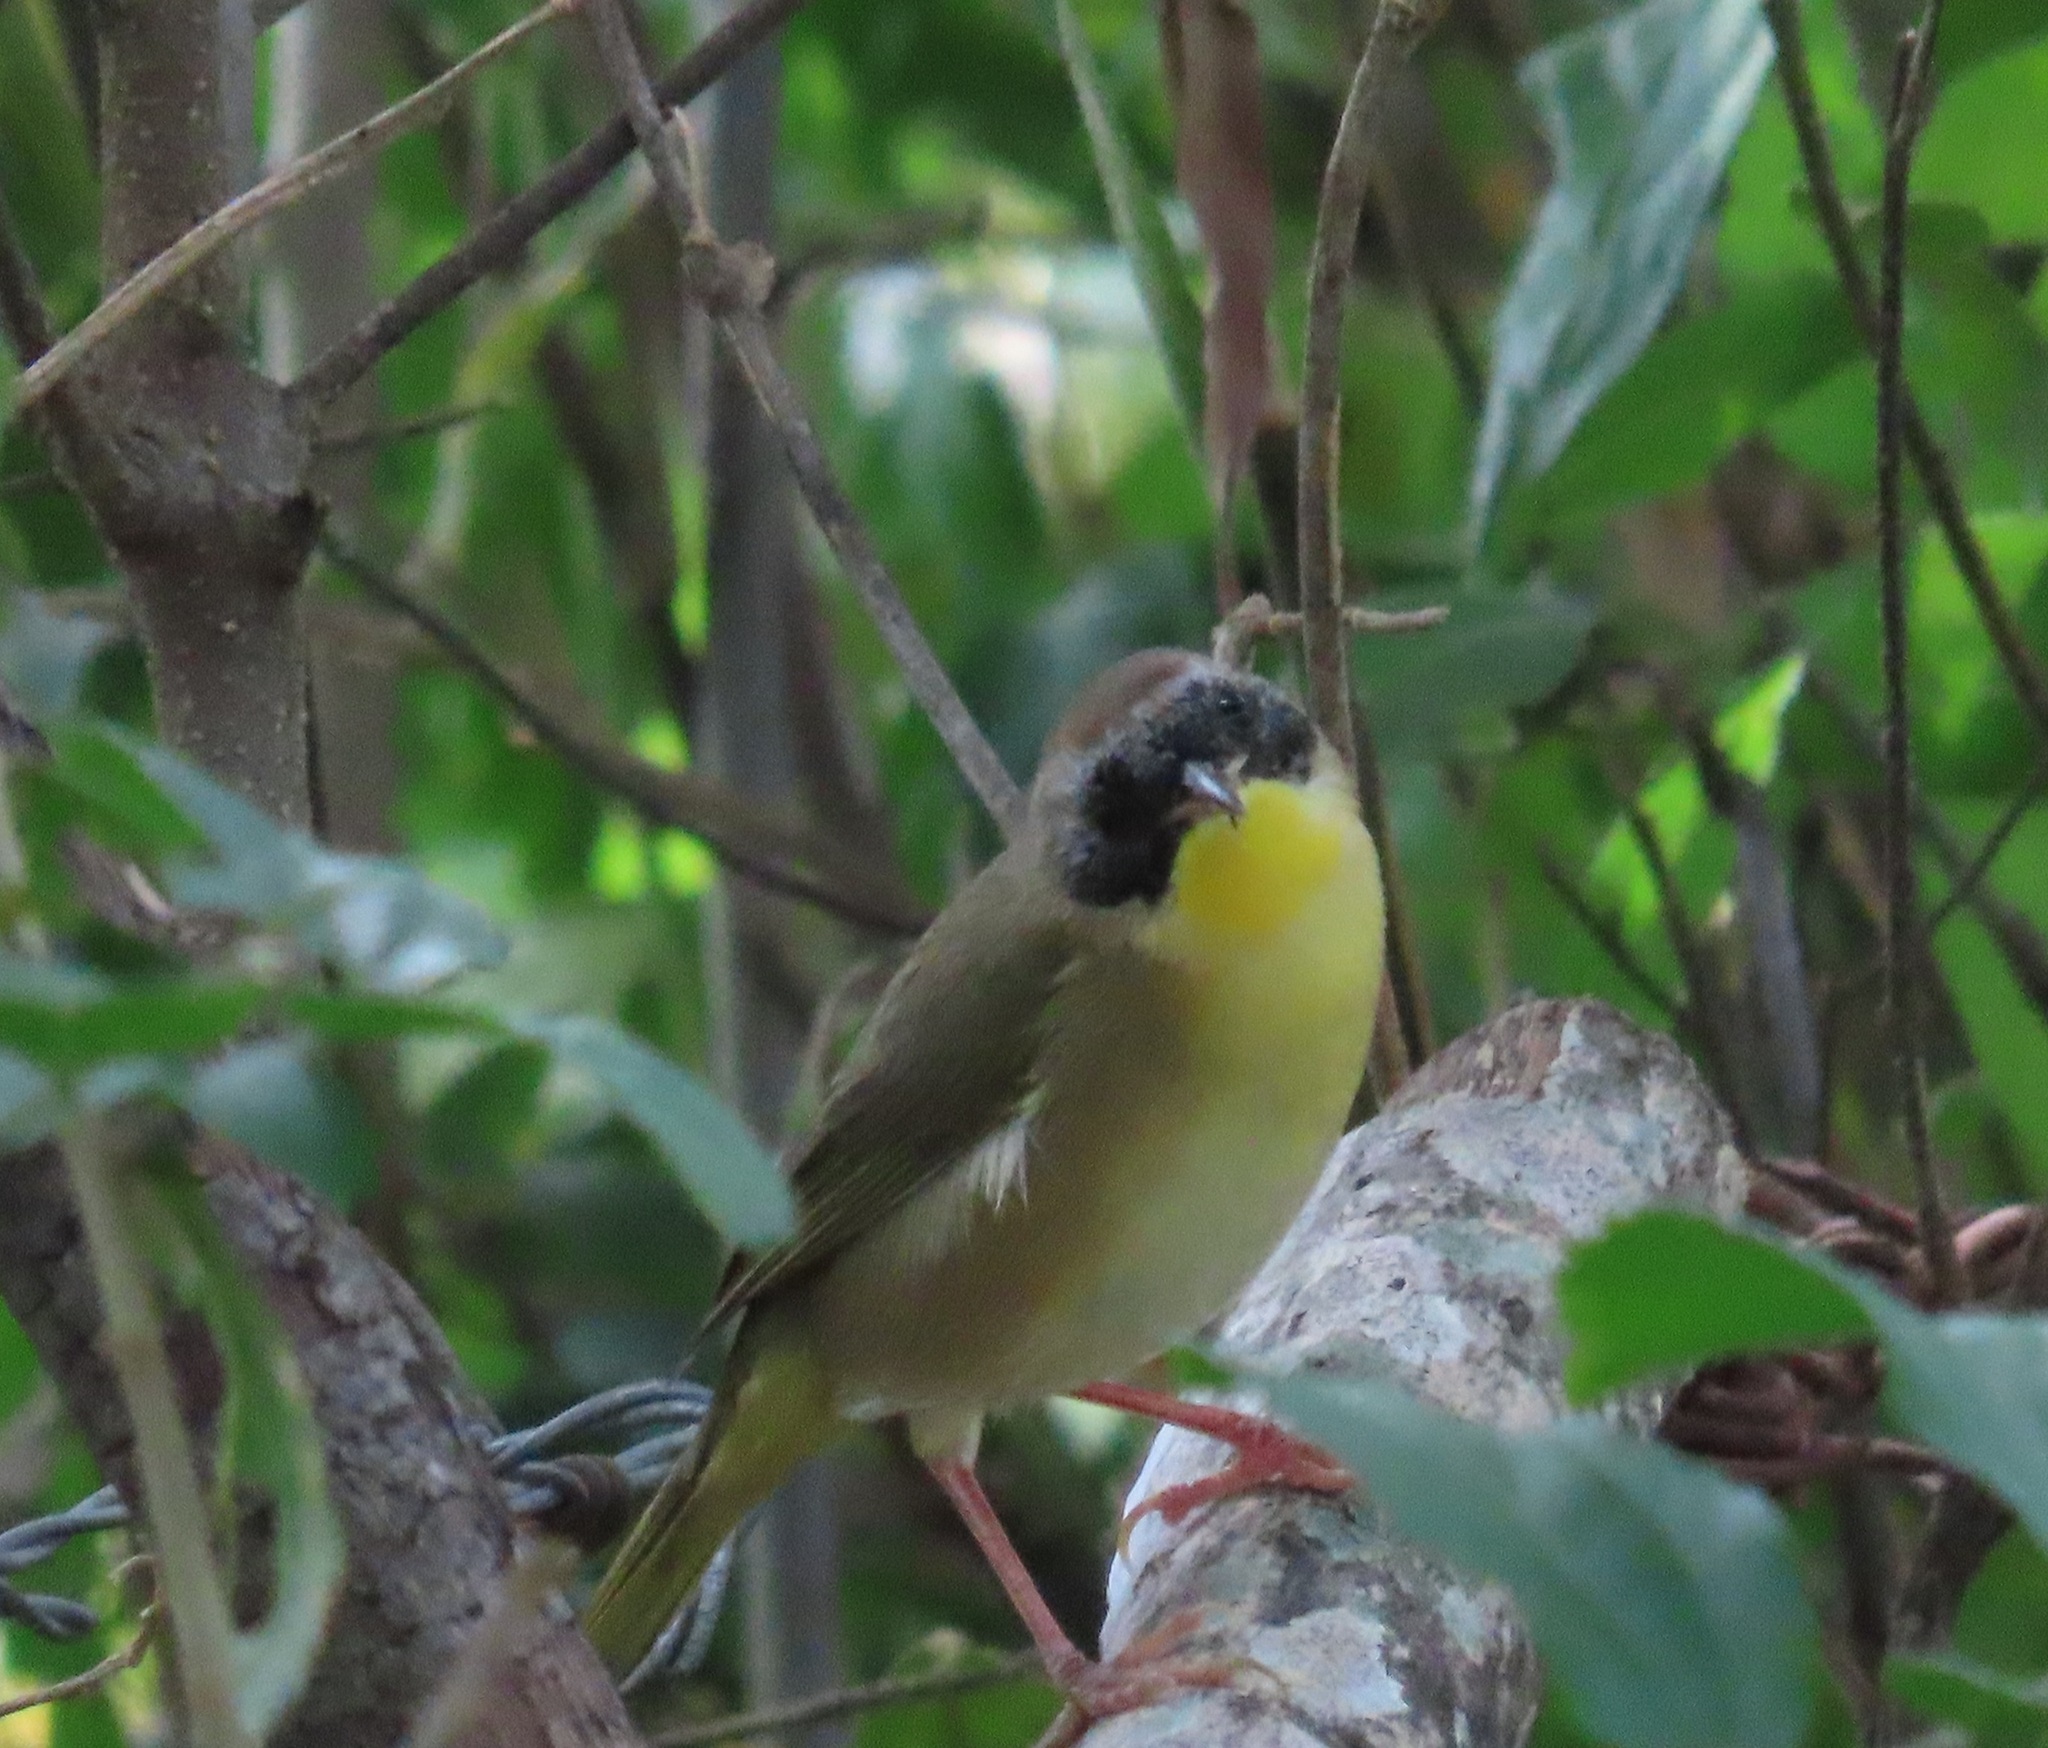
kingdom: Animalia
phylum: Chordata
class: Aves
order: Passeriformes
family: Parulidae
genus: Geothlypis
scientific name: Geothlypis trichas
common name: Common yellowthroat
